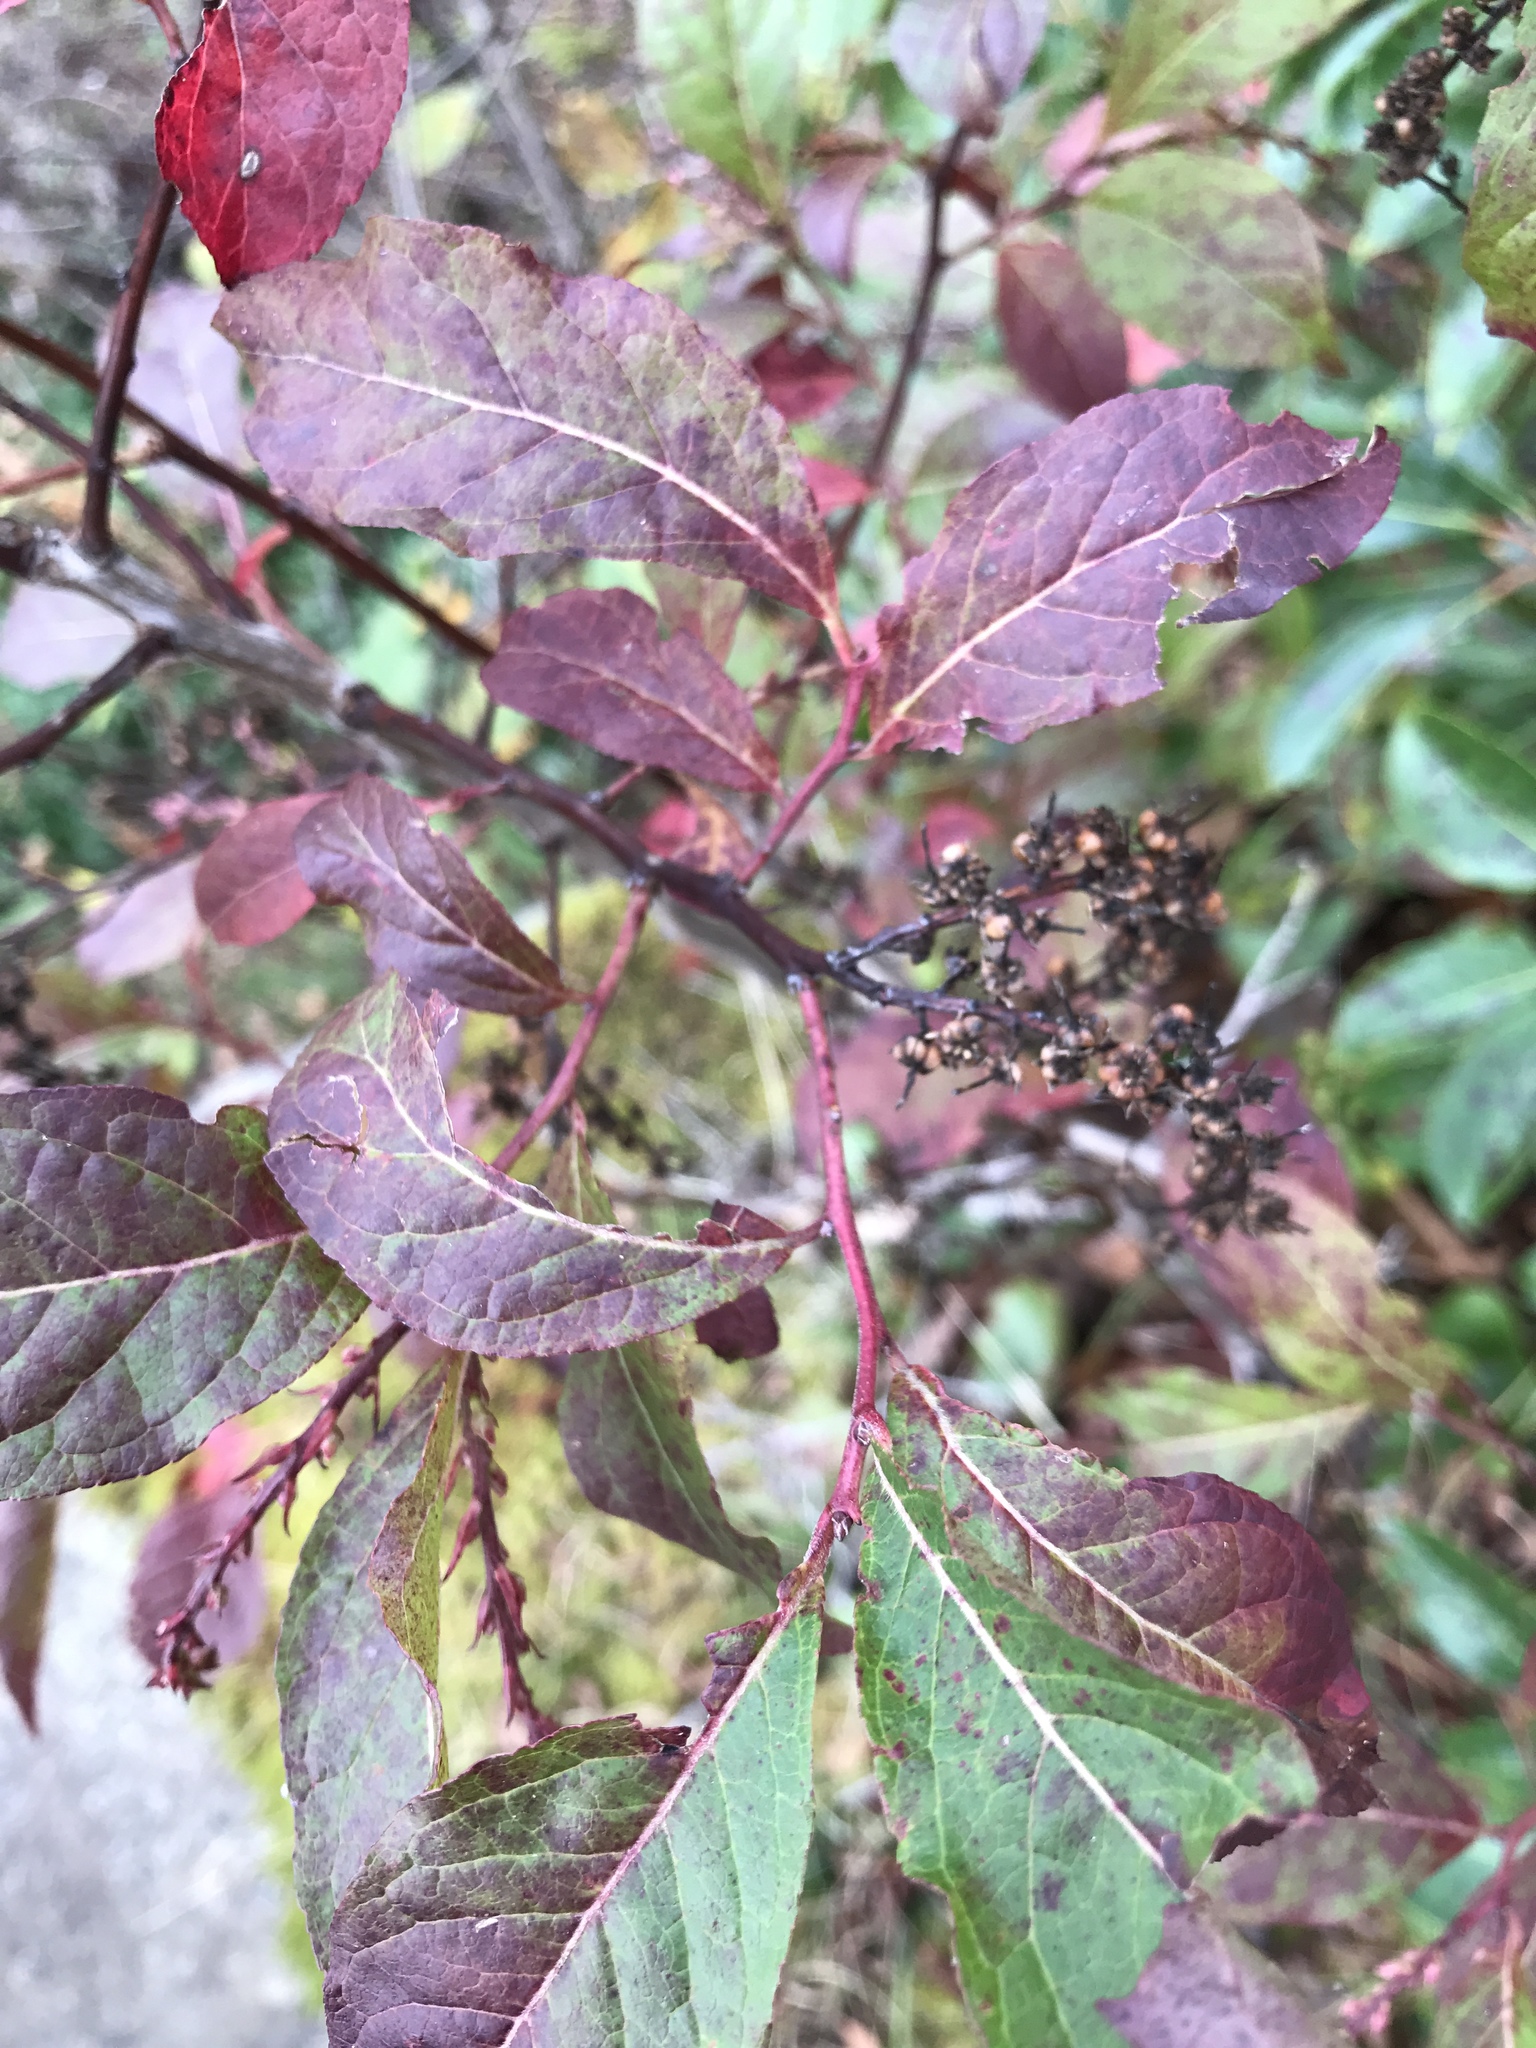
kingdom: Plantae
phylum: Tracheophyta
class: Magnoliopsida
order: Ericales
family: Ericaceae
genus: Eubotrys
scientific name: Eubotrys recurva
